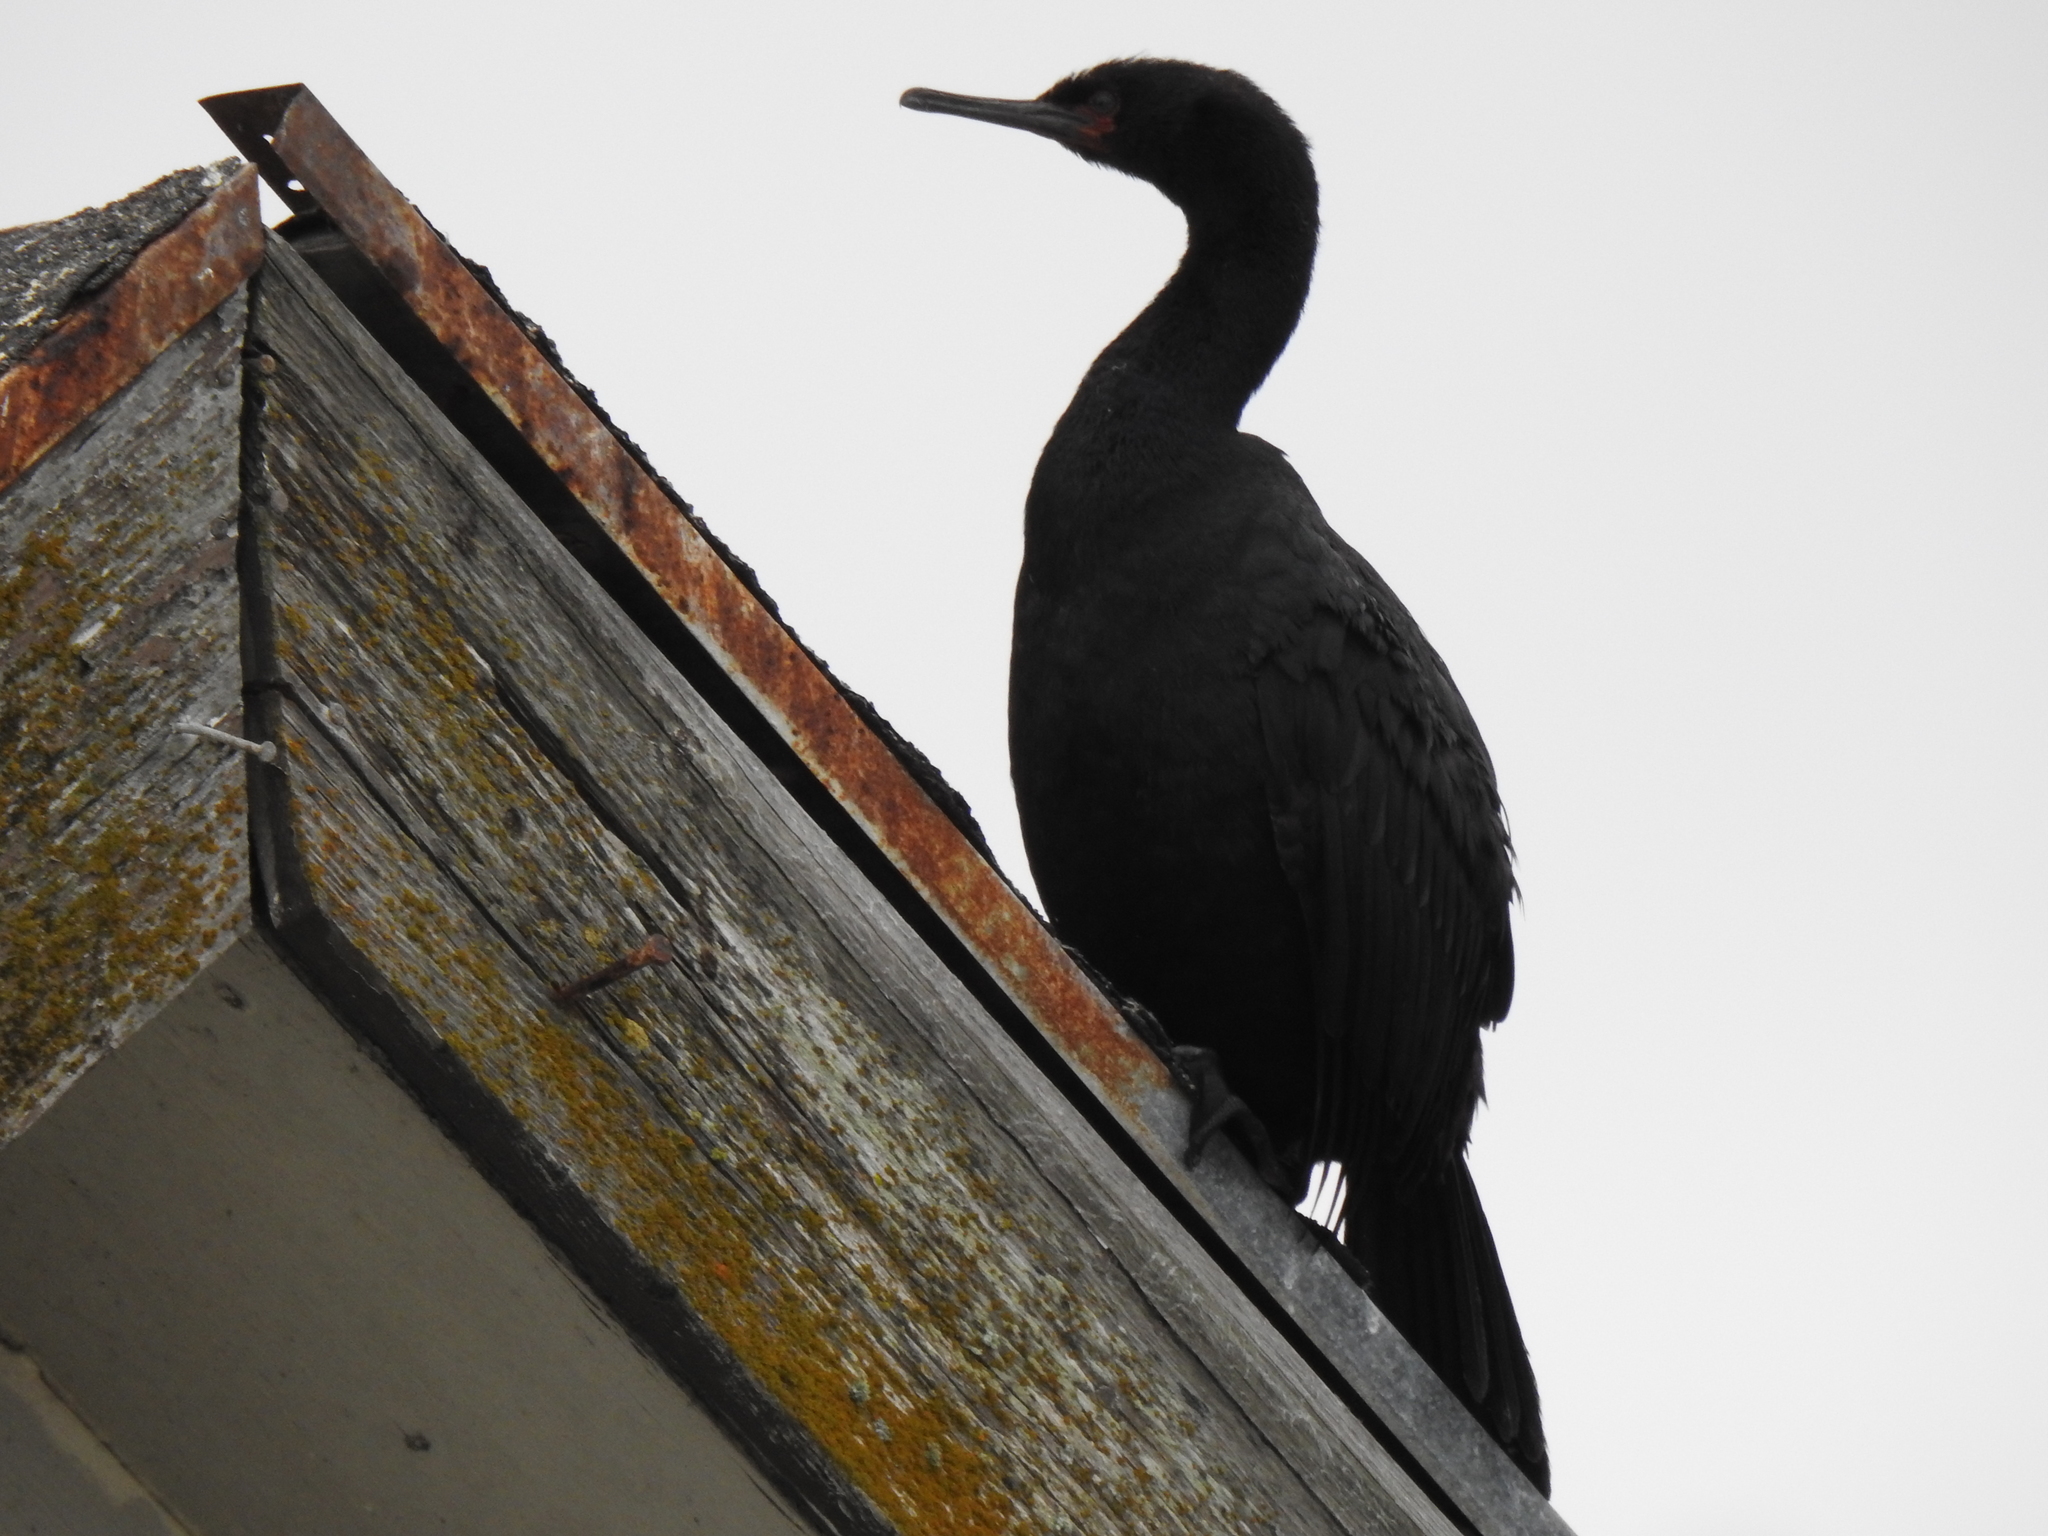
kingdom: Animalia
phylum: Chordata
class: Aves
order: Suliformes
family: Phalacrocoracidae
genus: Phalacrocorax
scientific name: Phalacrocorax pelagicus
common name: Pelagic cormorant
